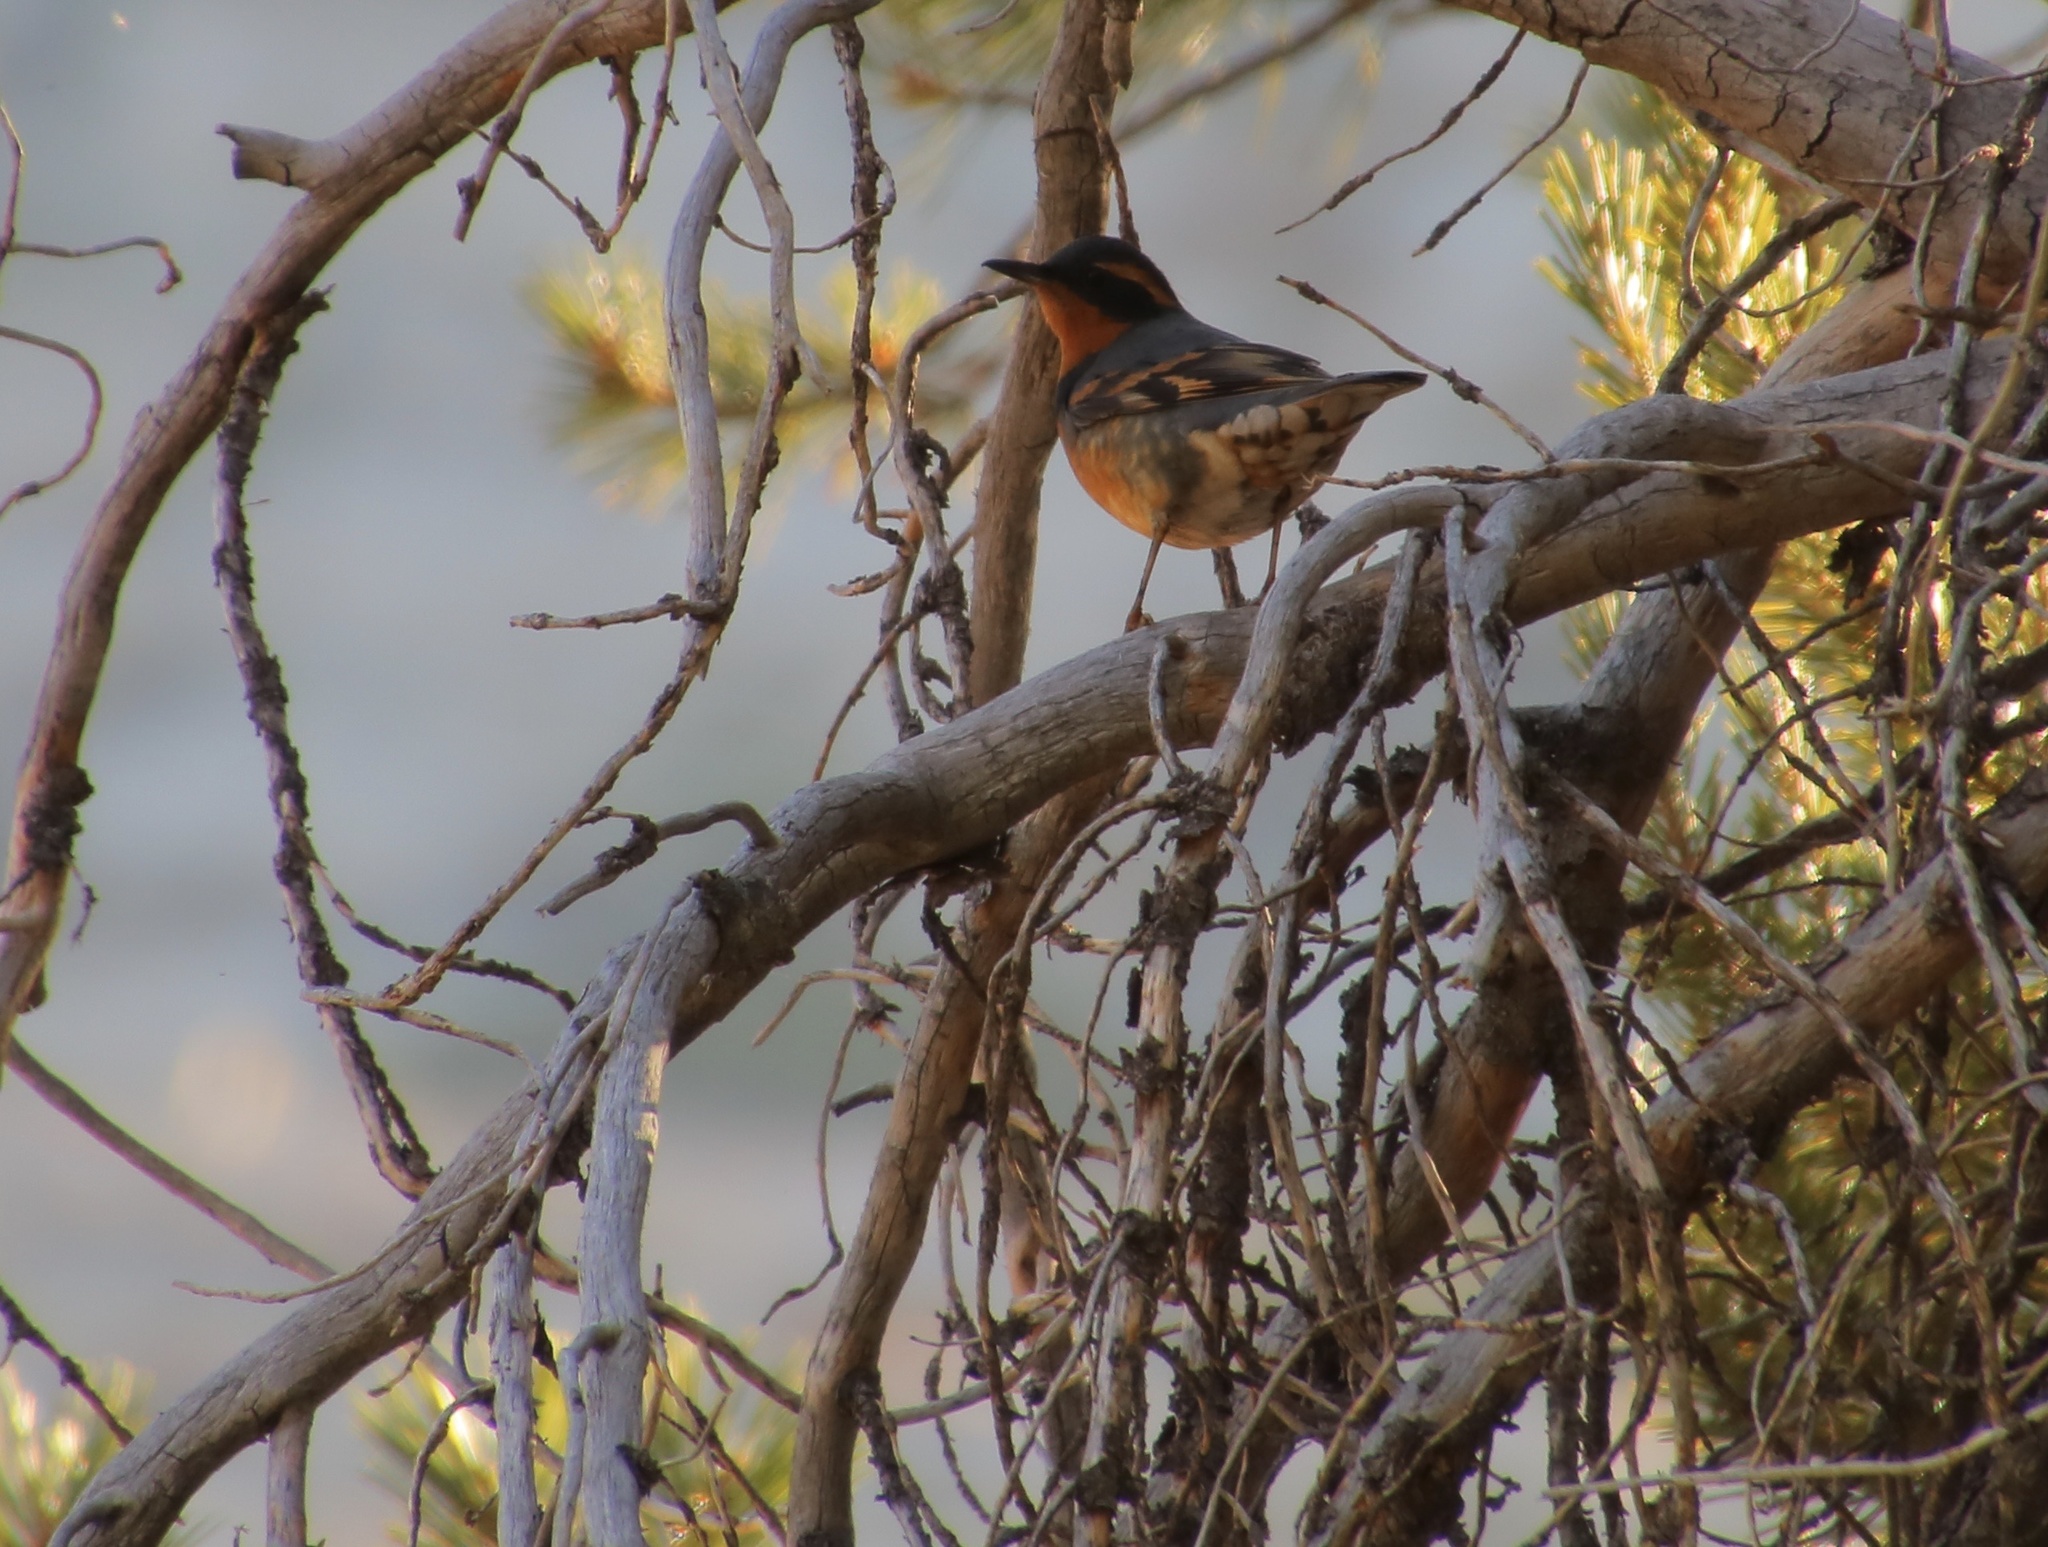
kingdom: Animalia
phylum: Chordata
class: Aves
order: Passeriformes
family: Turdidae
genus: Ixoreus
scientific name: Ixoreus naevius
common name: Varied thrush
